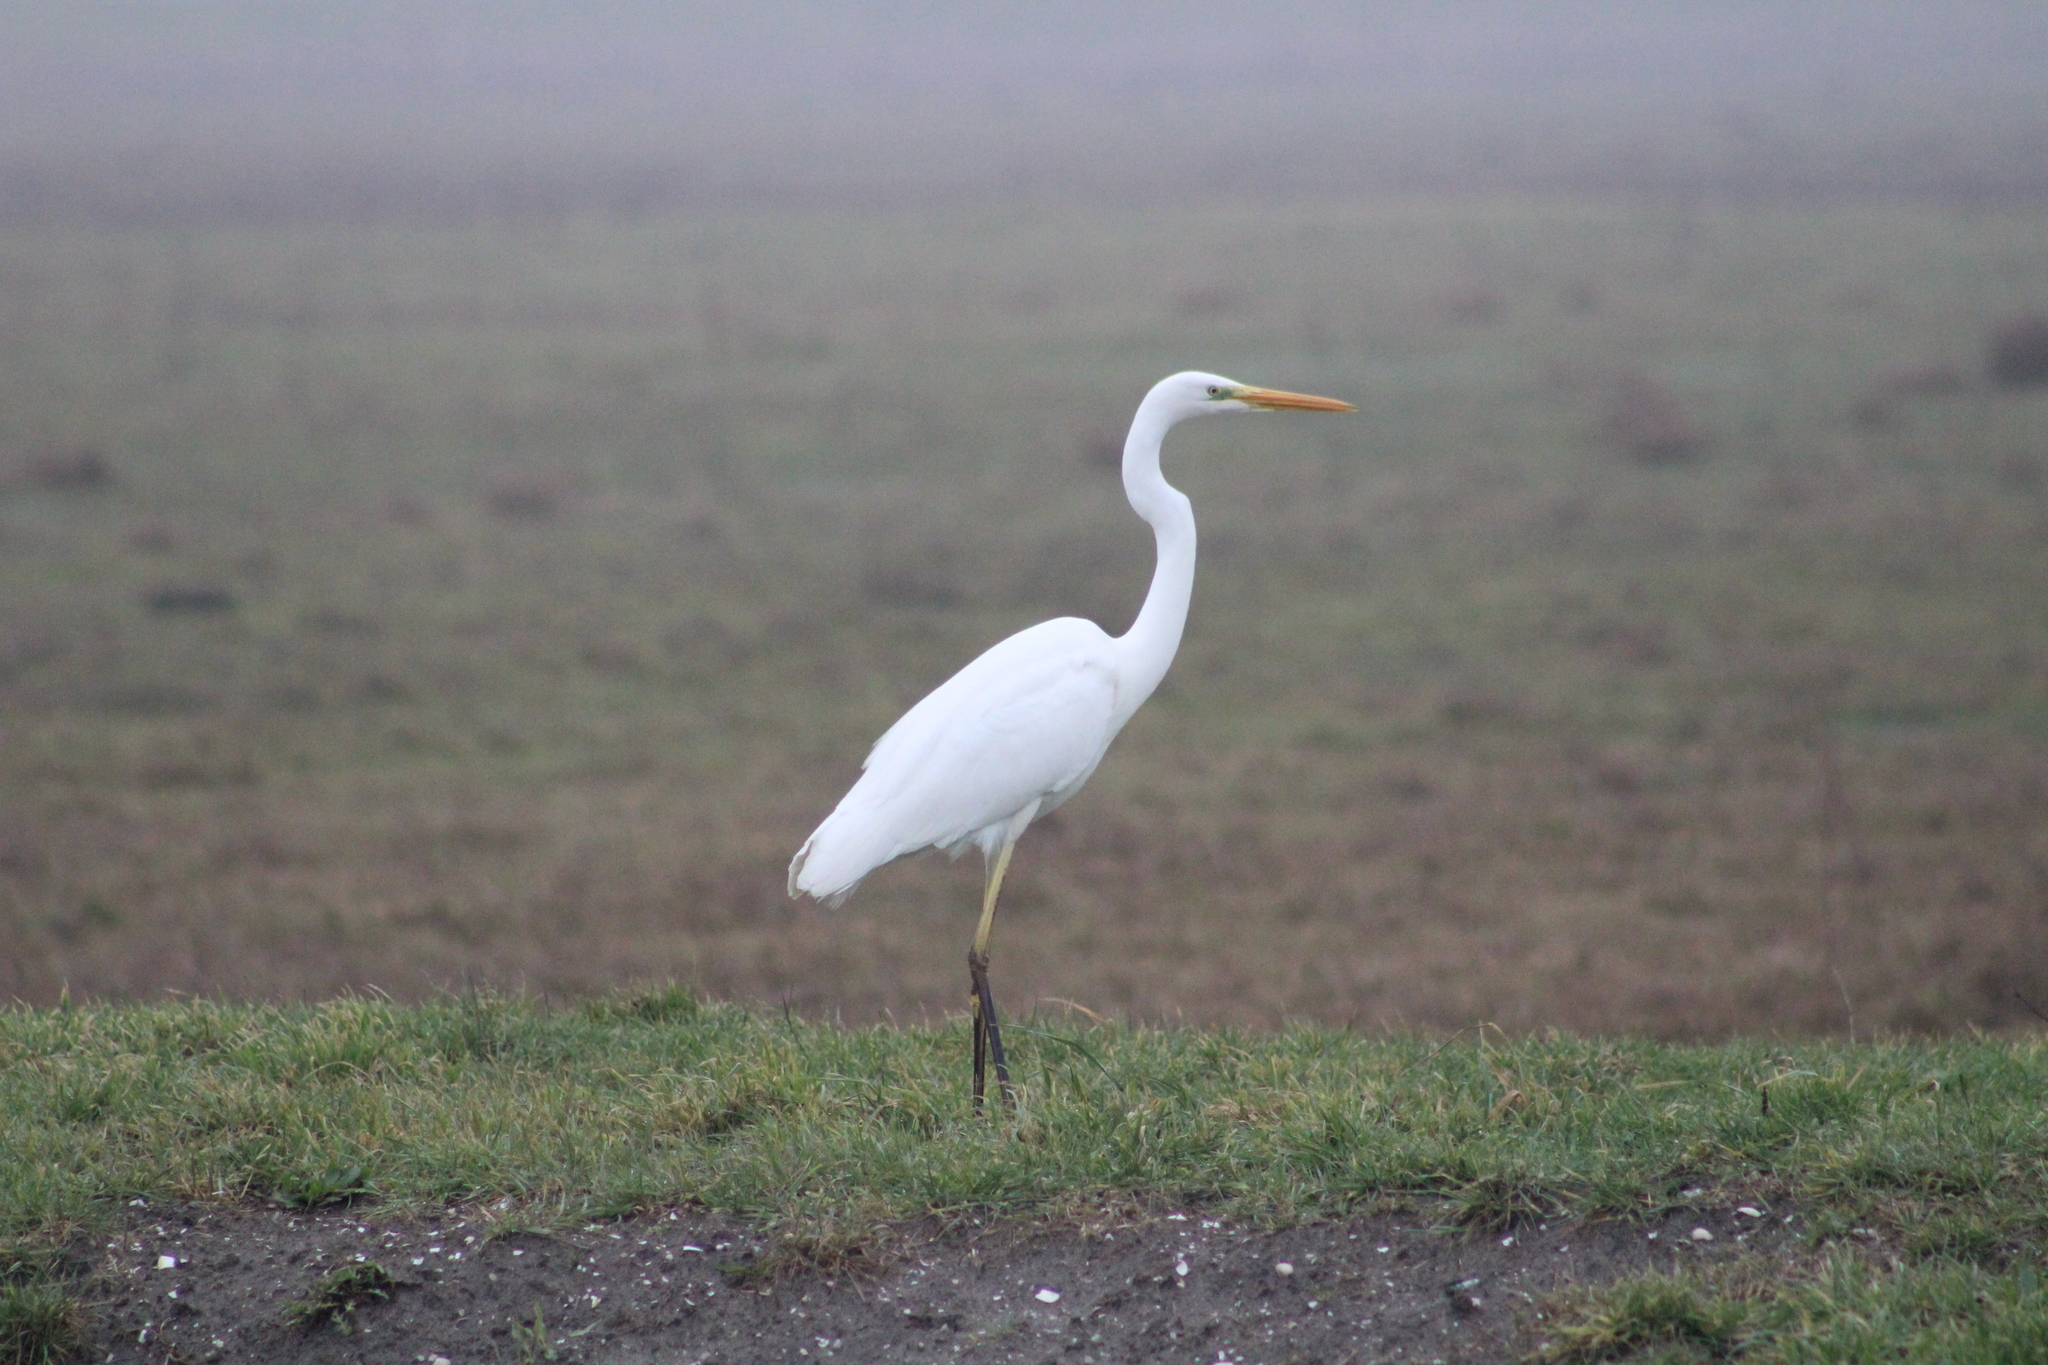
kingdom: Animalia
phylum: Chordata
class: Aves
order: Pelecaniformes
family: Ardeidae
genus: Ardea
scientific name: Ardea alba
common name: Great egret
